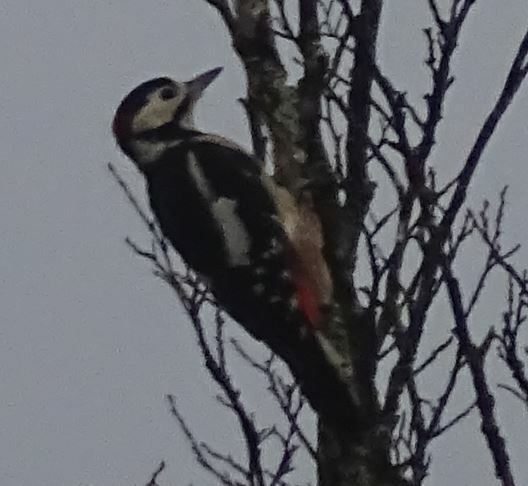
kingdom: Animalia
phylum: Chordata
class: Aves
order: Piciformes
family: Picidae
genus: Dendrocopos
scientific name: Dendrocopos major
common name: Great spotted woodpecker
